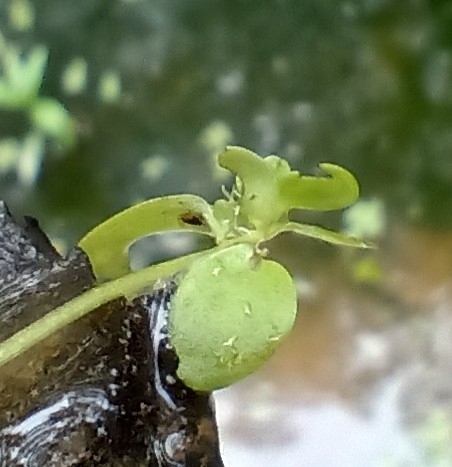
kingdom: Plantae
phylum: Tracheophyta
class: Magnoliopsida
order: Lamiales
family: Plantaginaceae
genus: Callitriche
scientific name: Callitriche stagnalis
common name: Common water-starwort
